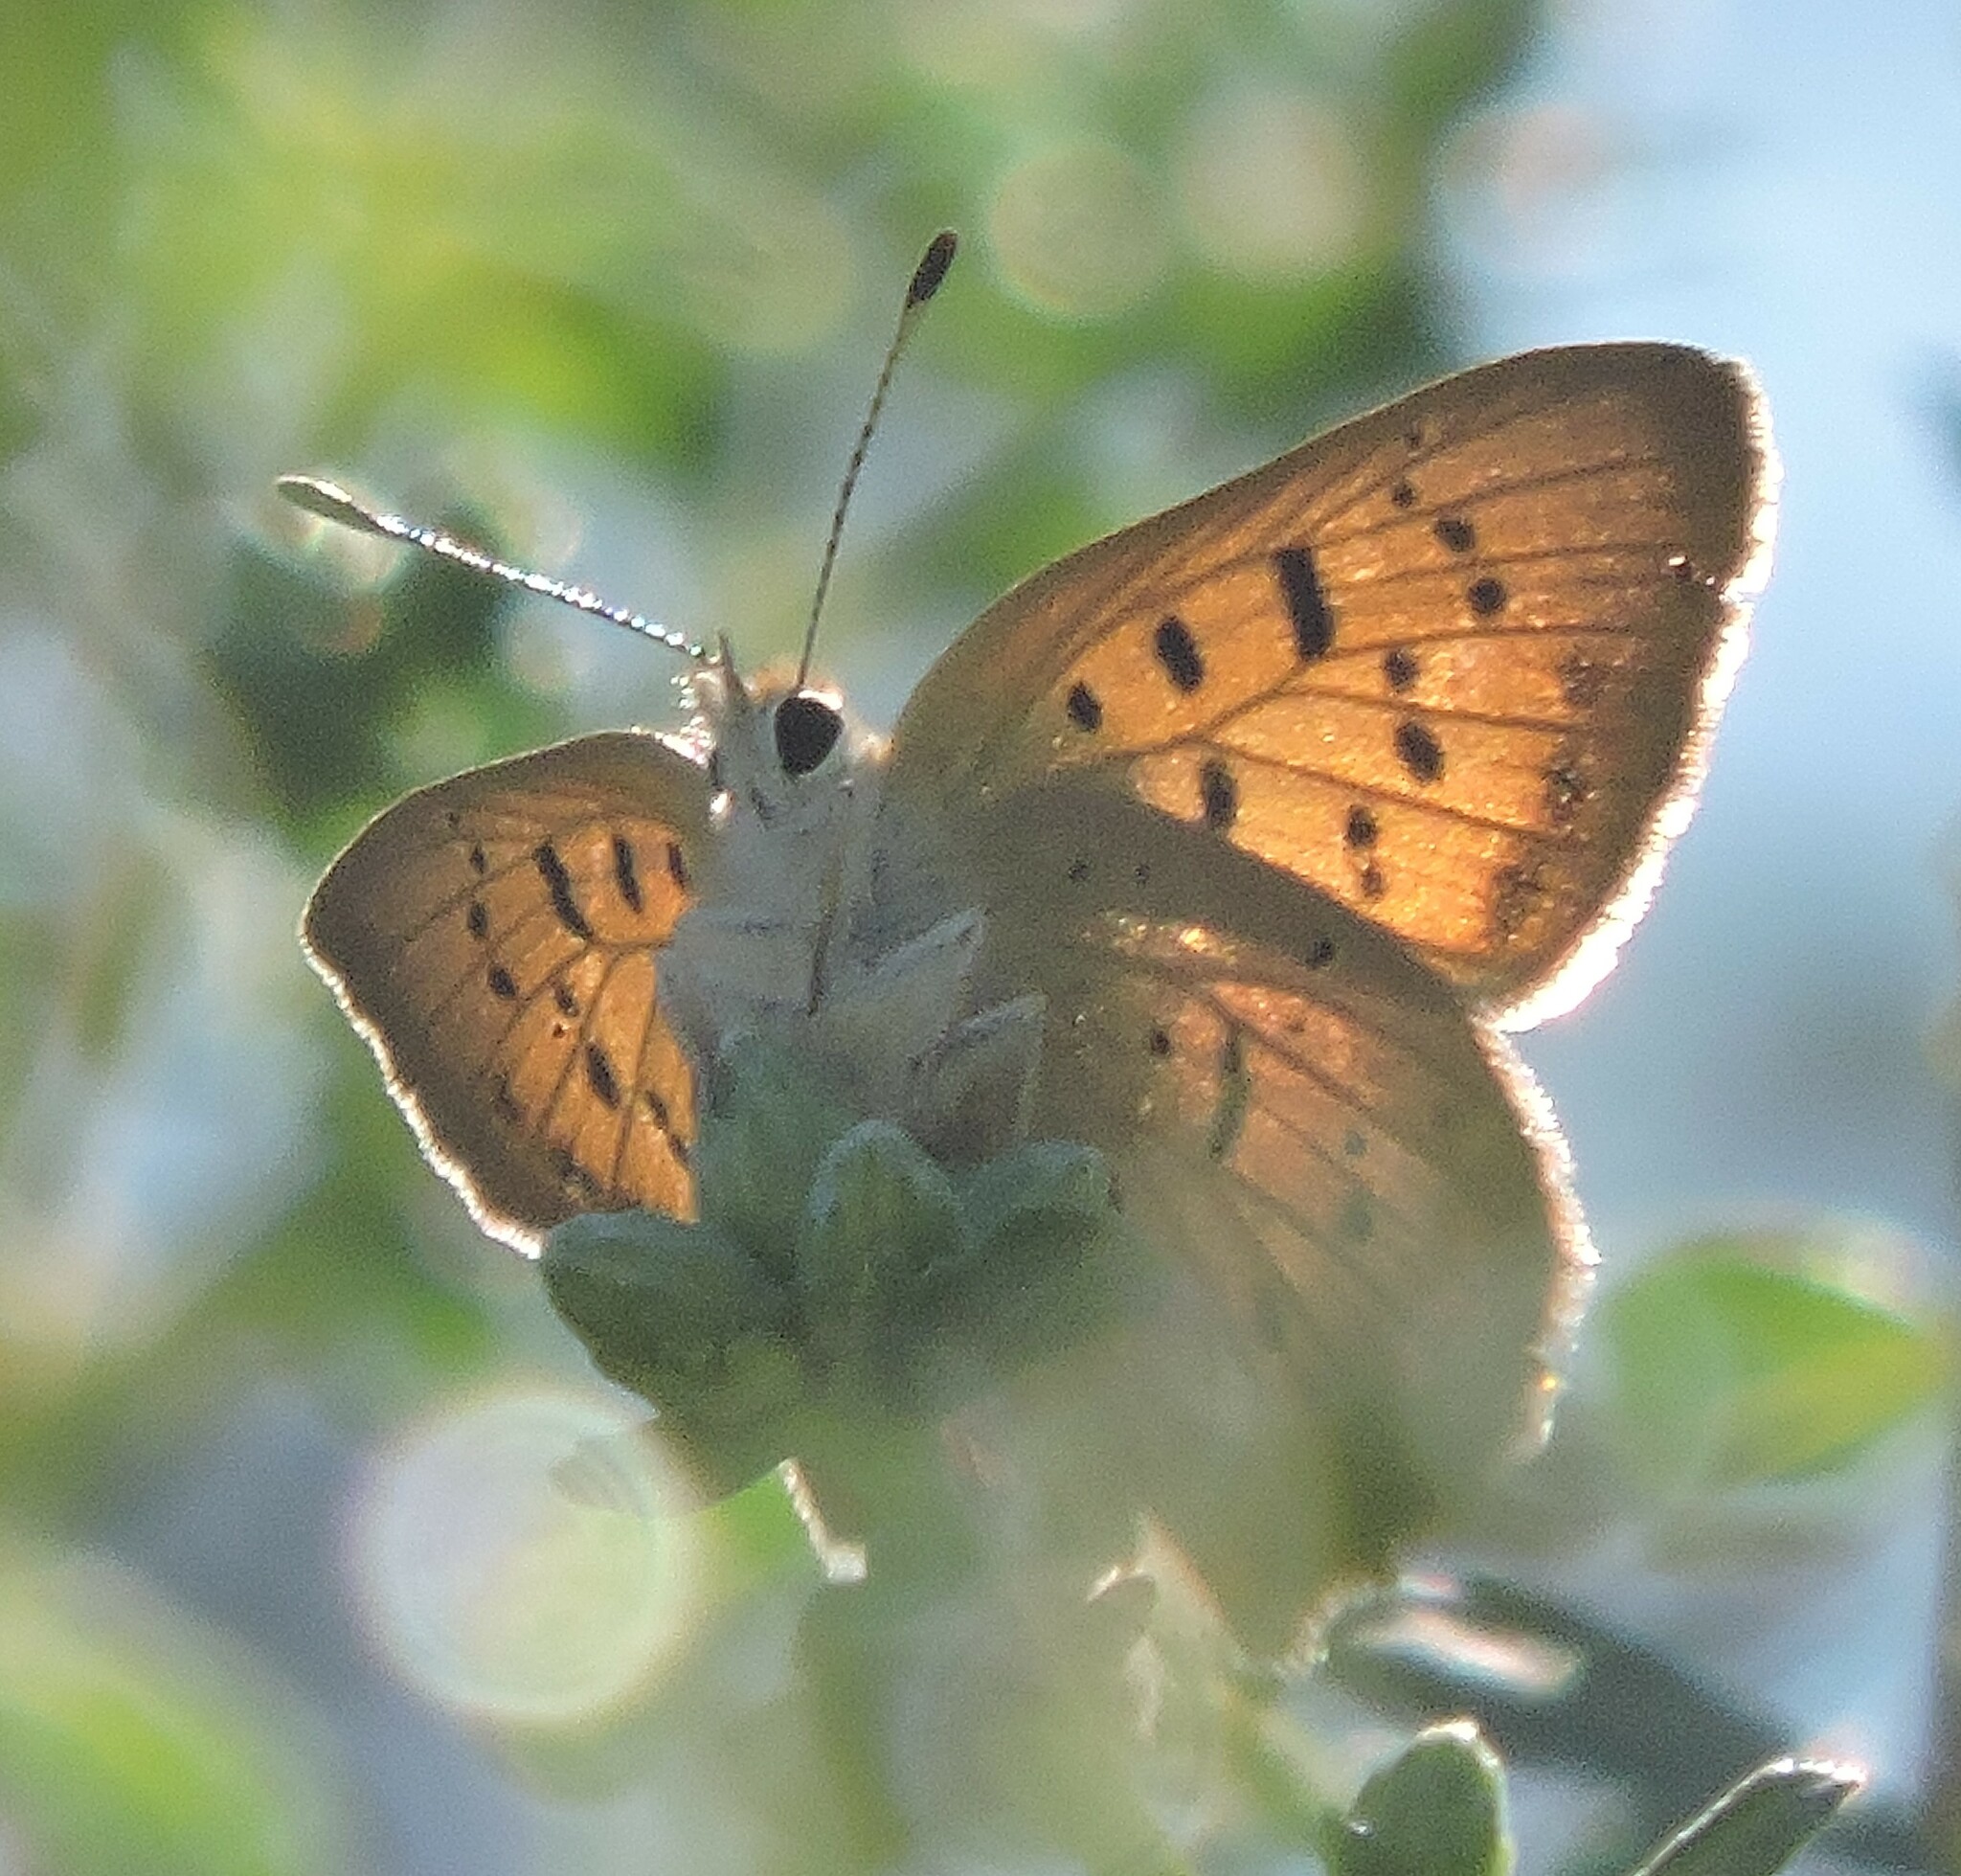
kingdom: Animalia
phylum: Arthropoda
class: Insecta
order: Lepidoptera
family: Lycaenidae
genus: Tharsalea
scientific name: Tharsalea helloides
